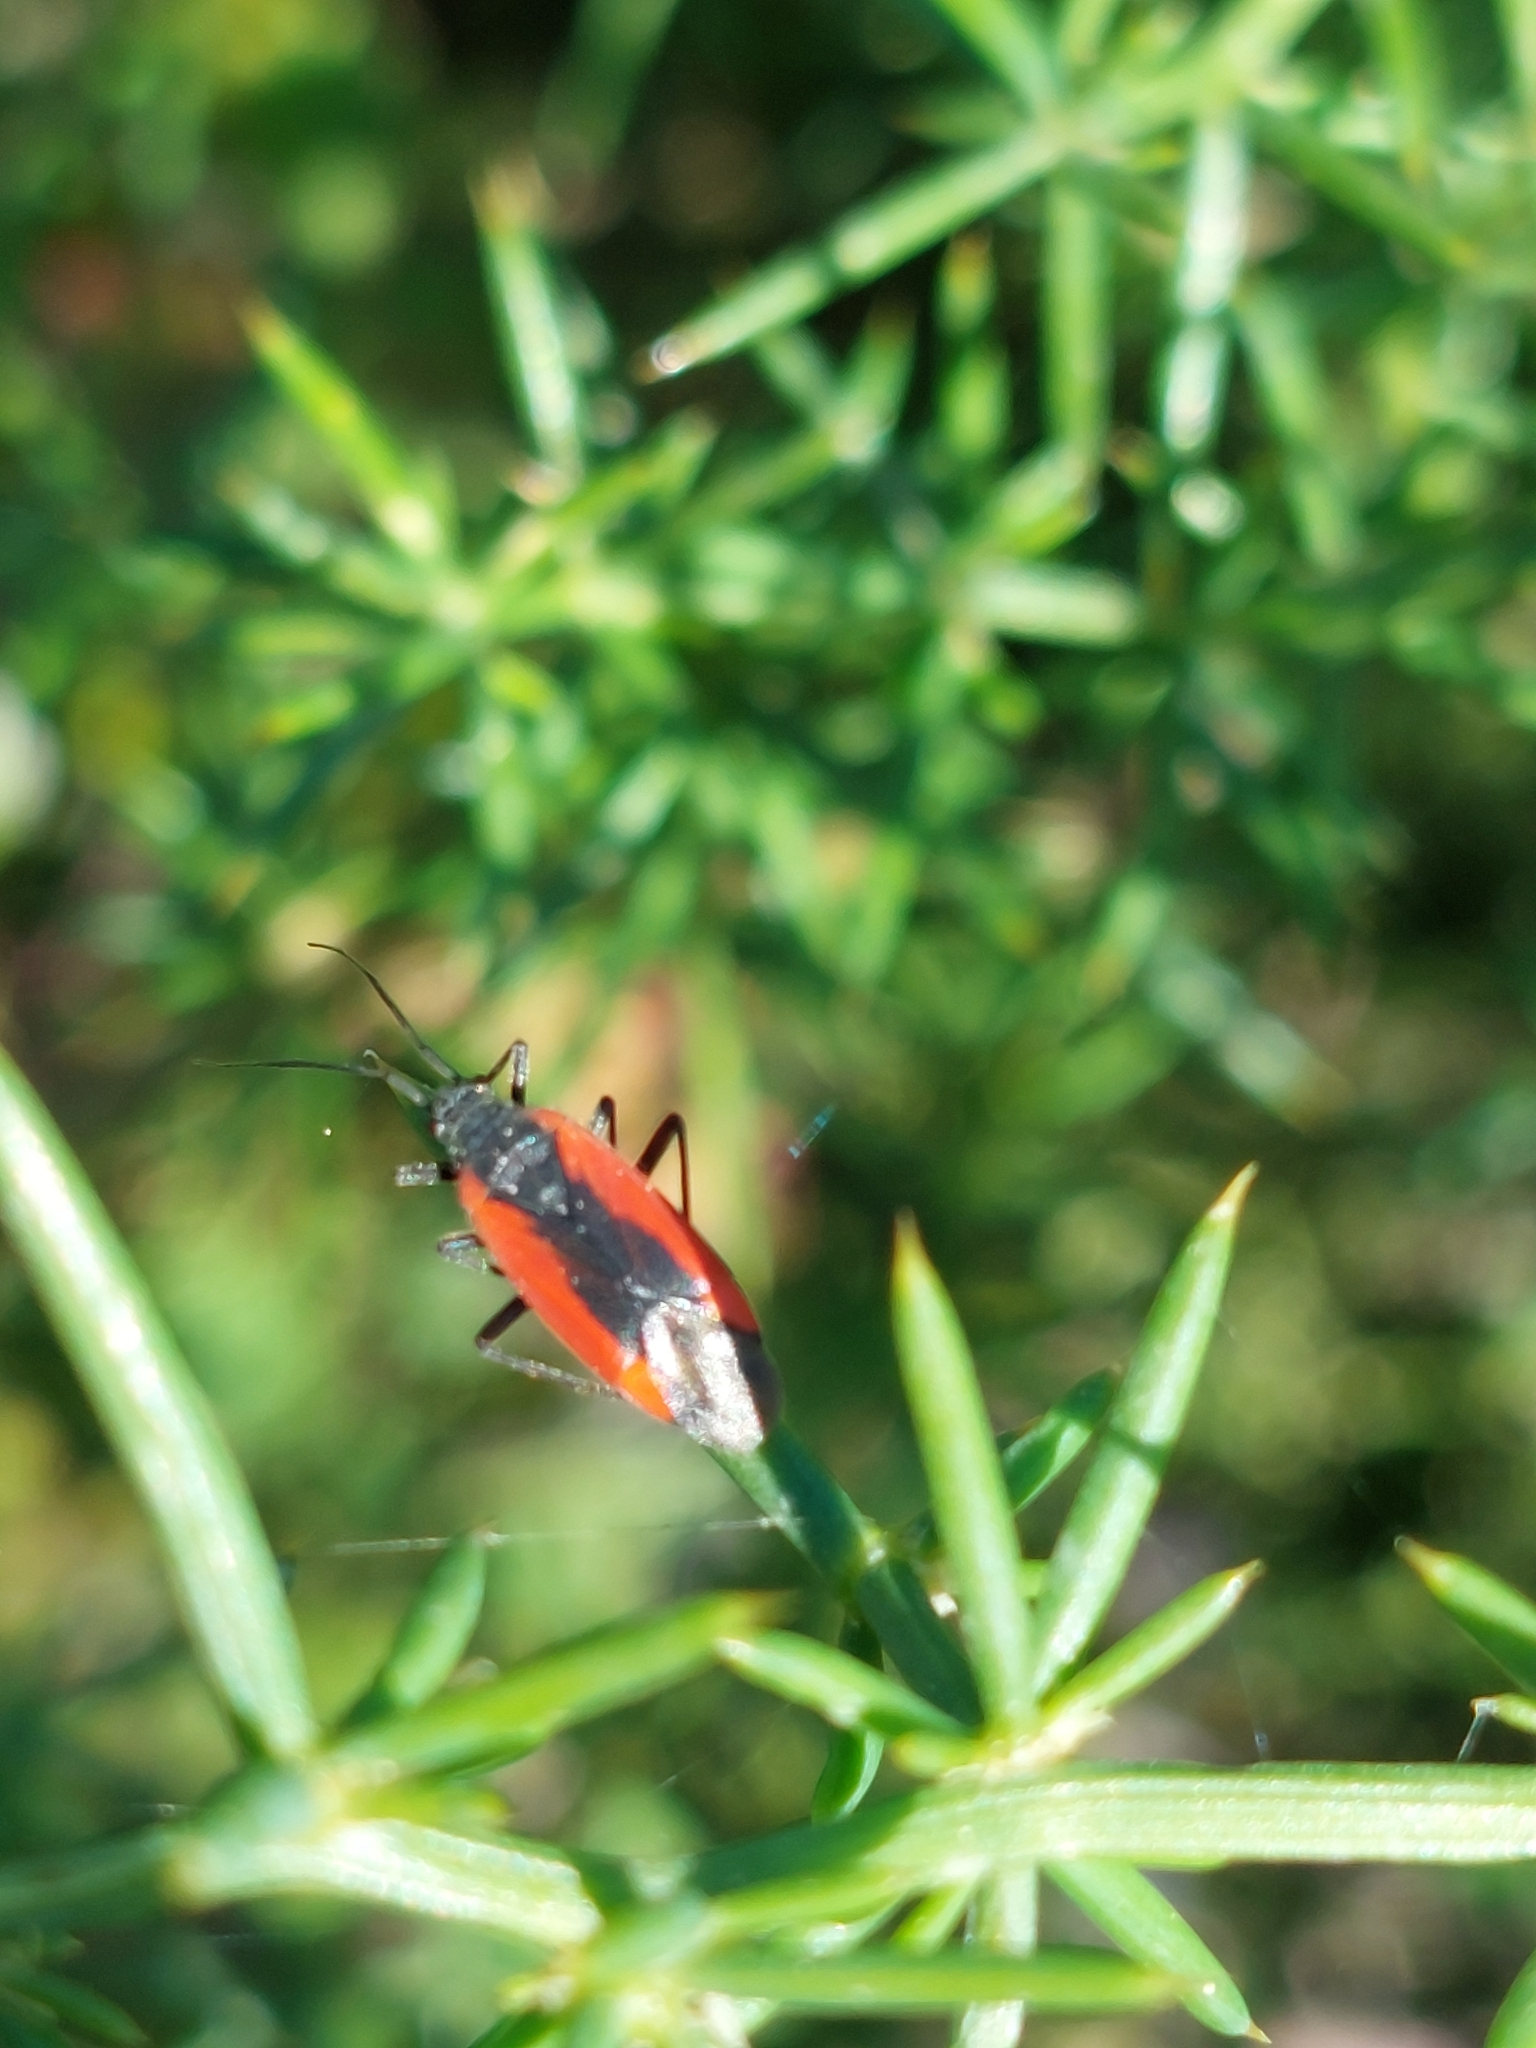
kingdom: Animalia
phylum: Arthropoda
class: Insecta
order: Hemiptera
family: Miridae
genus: Dionconotus
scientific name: Dionconotus neglectus
